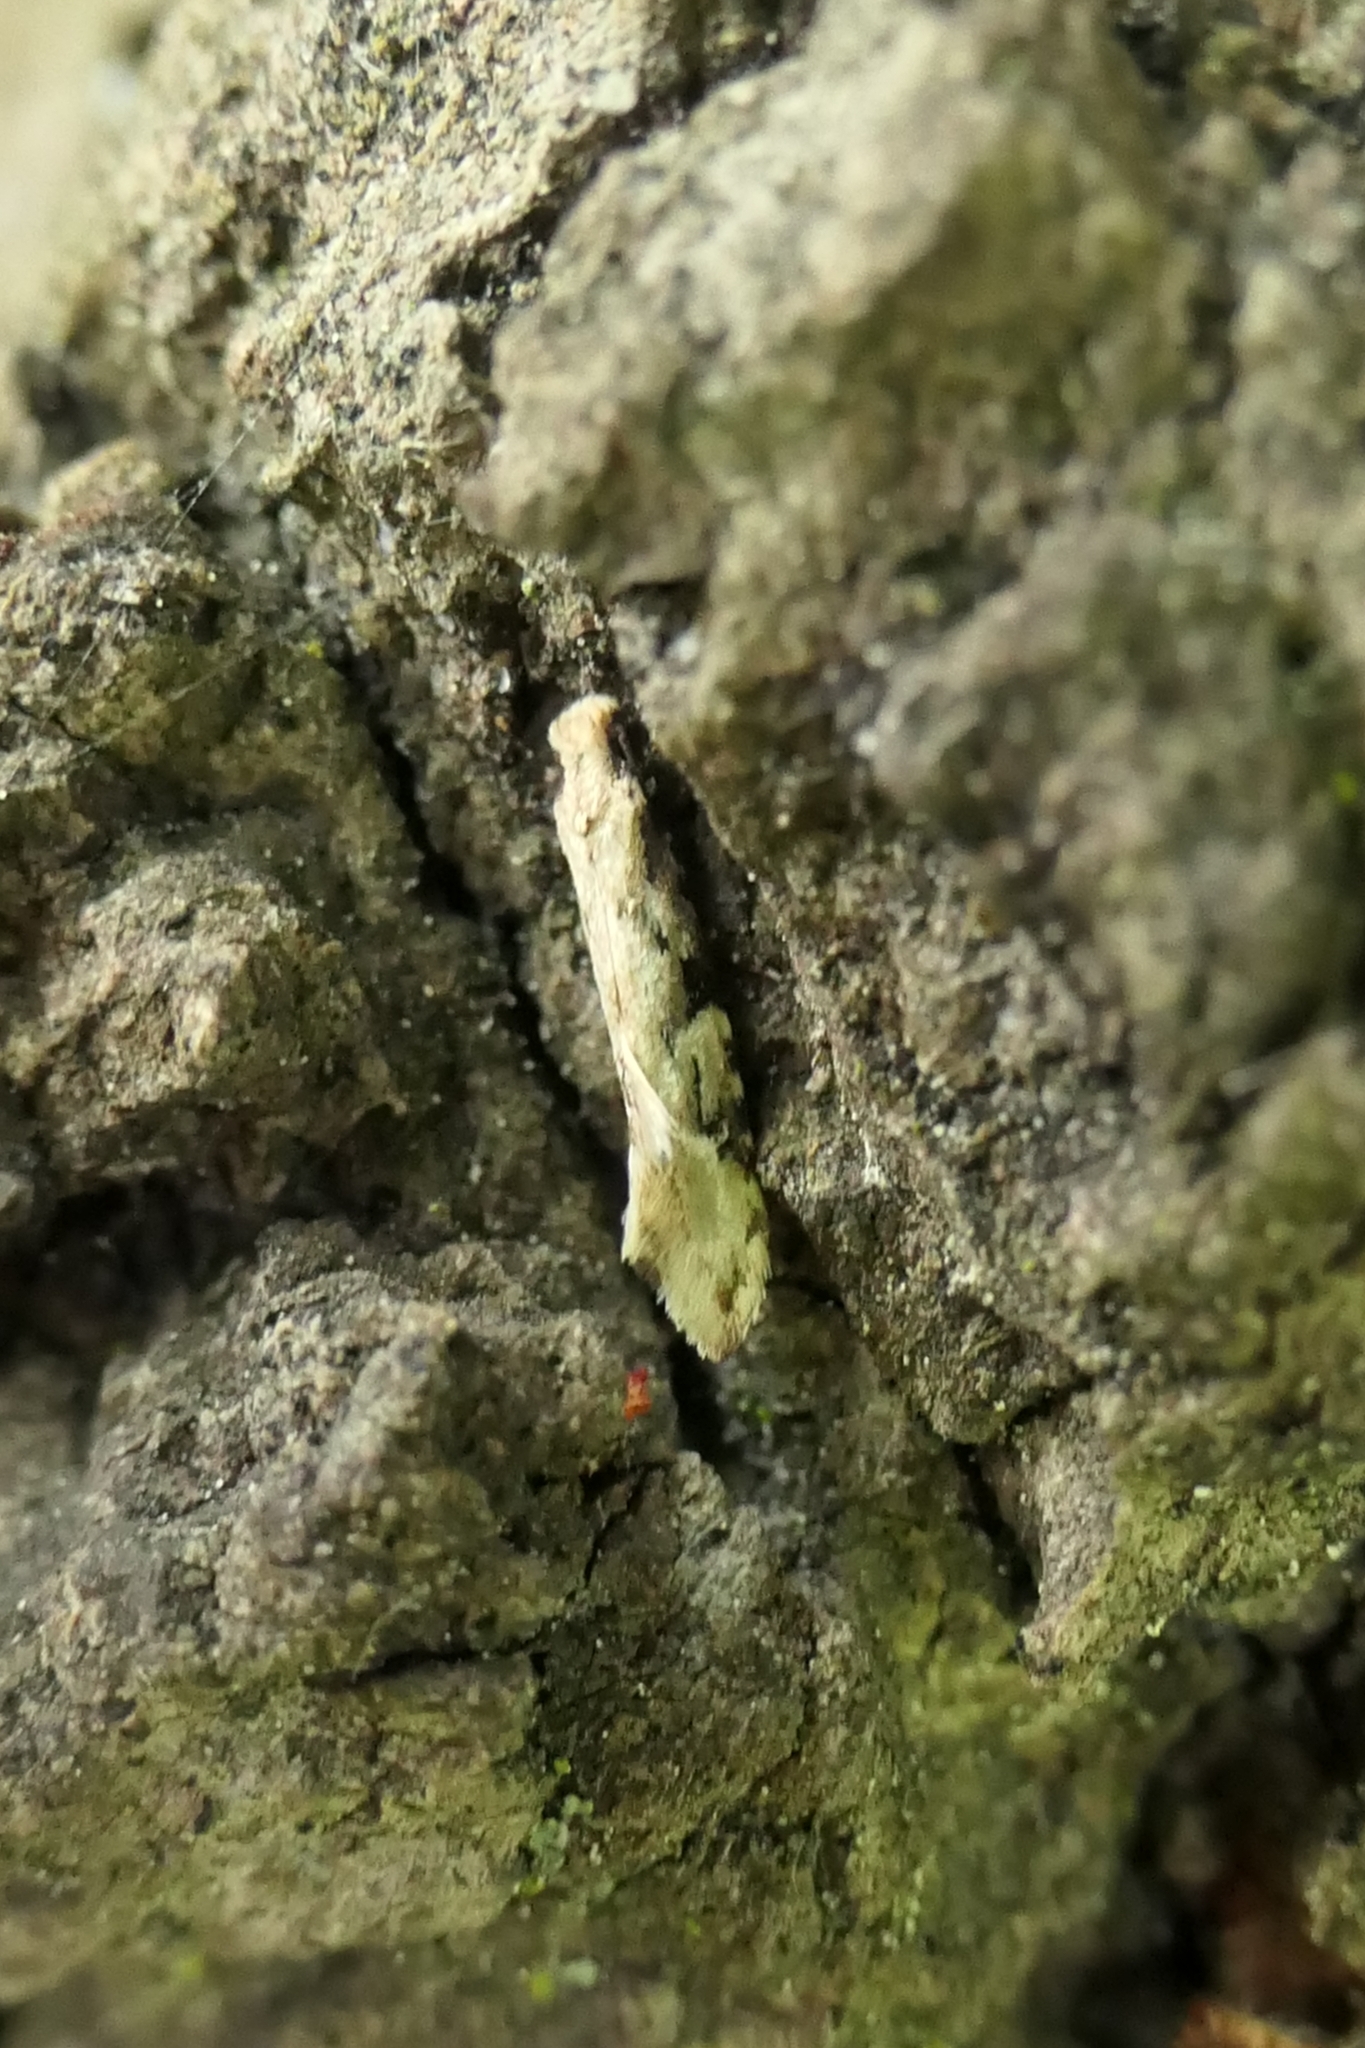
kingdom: Animalia
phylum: Arthropoda
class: Insecta
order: Lepidoptera
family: Tineidae
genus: Crypsitricha
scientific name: Crypsitricha mesotypa
